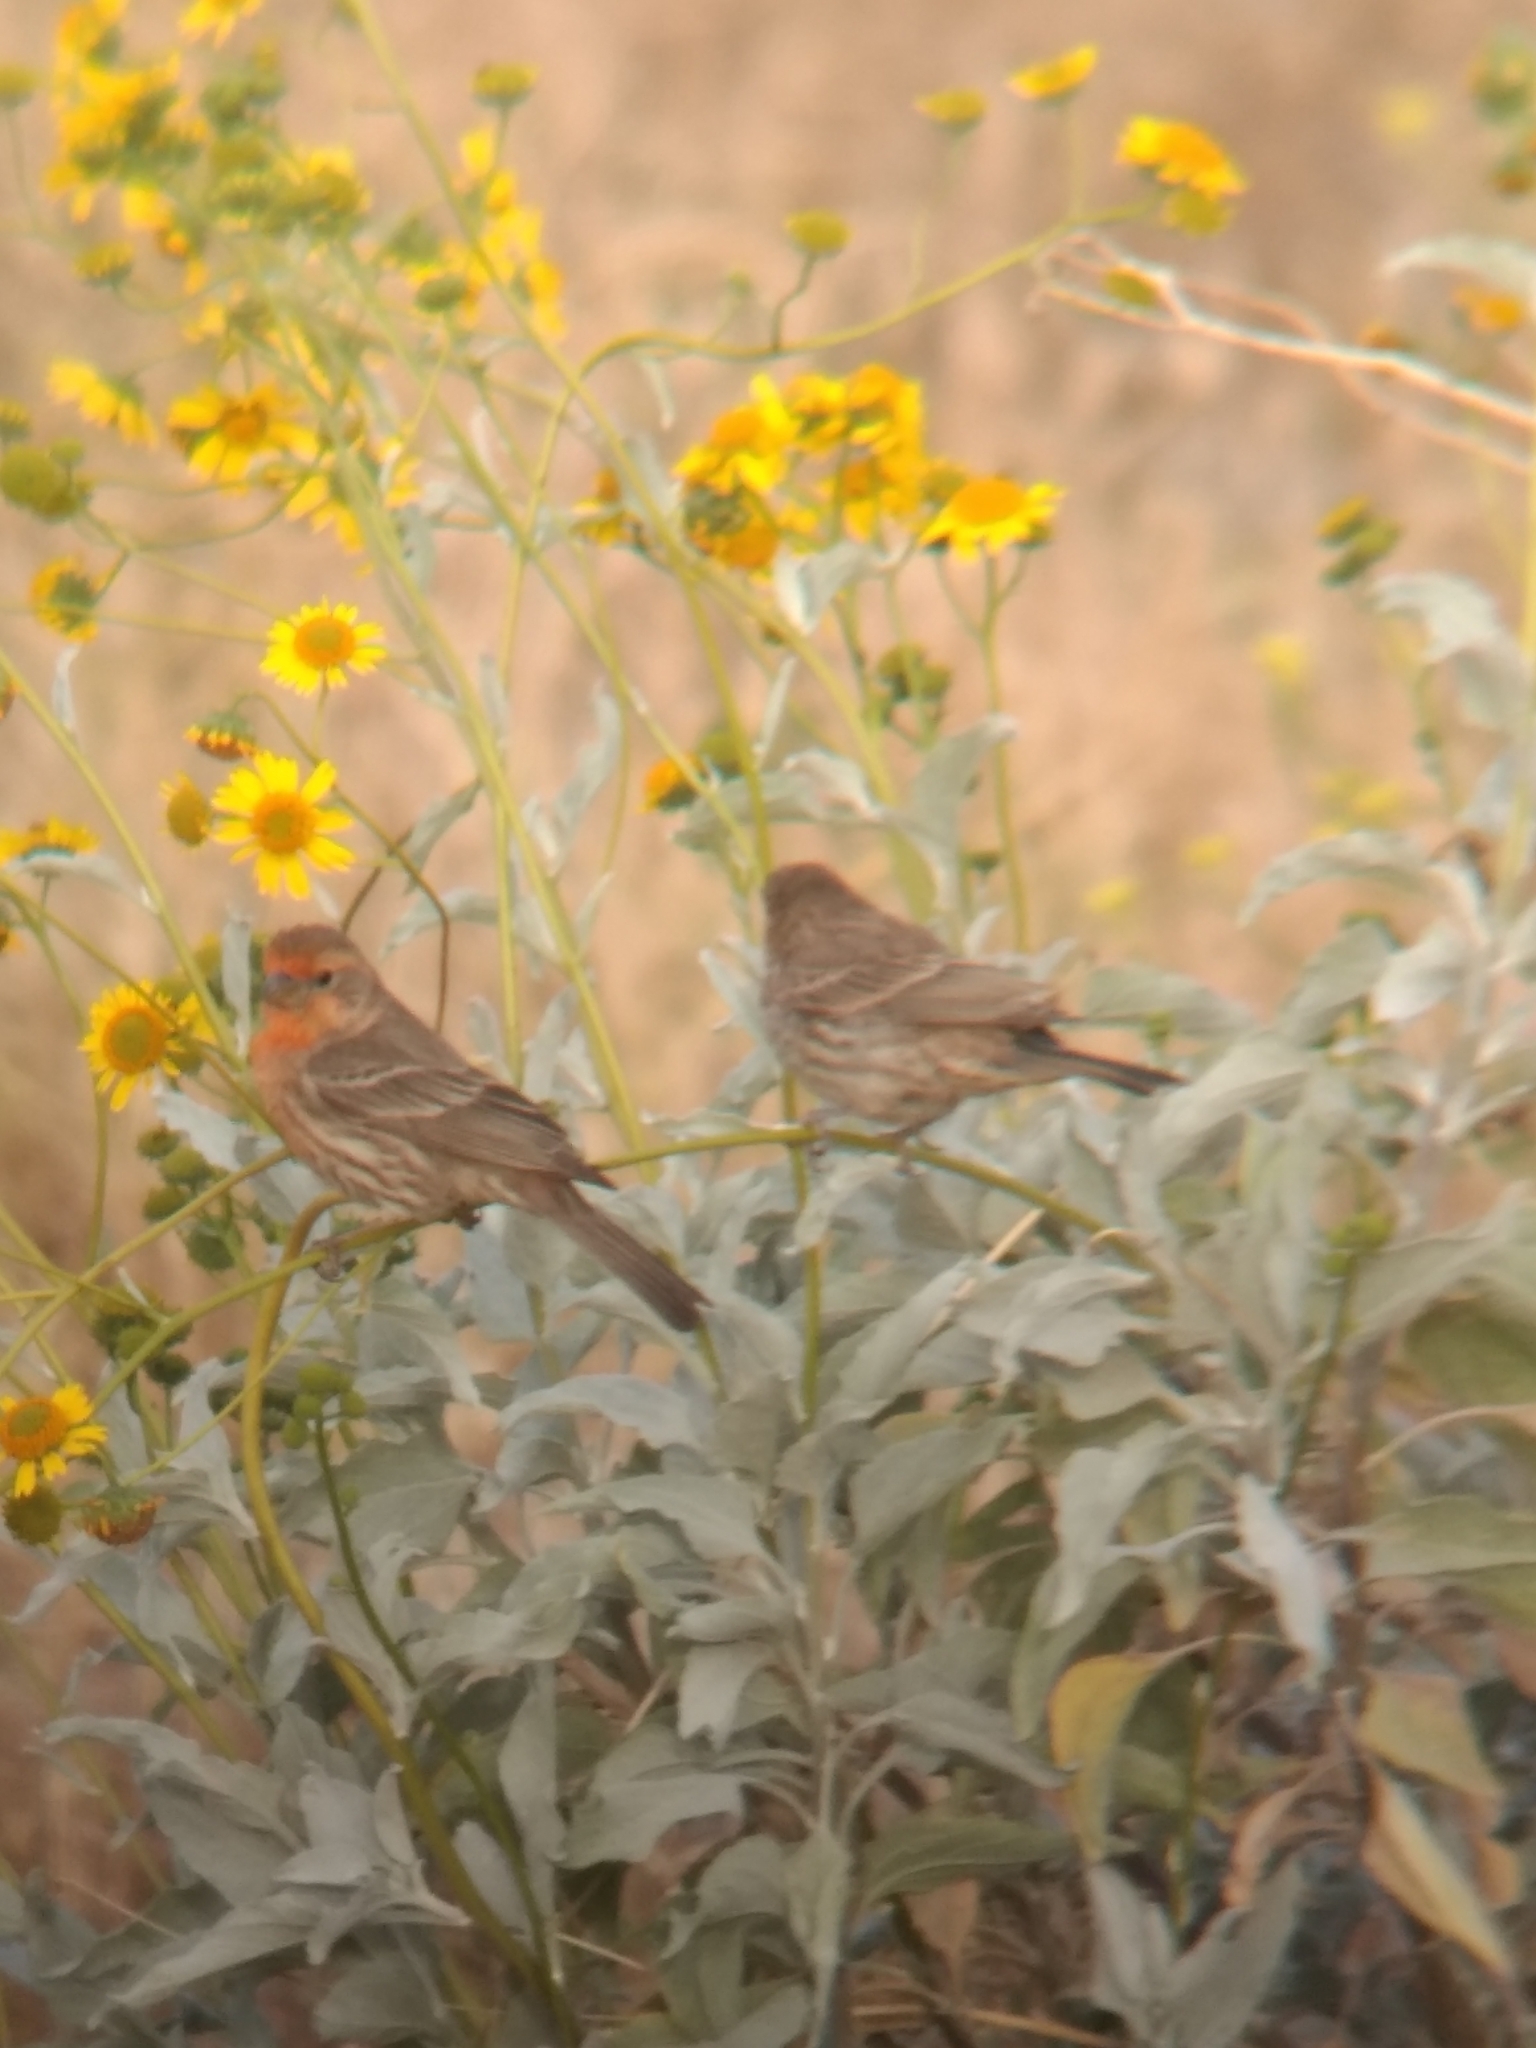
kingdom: Animalia
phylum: Chordata
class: Aves
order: Passeriformes
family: Fringillidae
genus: Haemorhous
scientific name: Haemorhous mexicanus
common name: House finch
